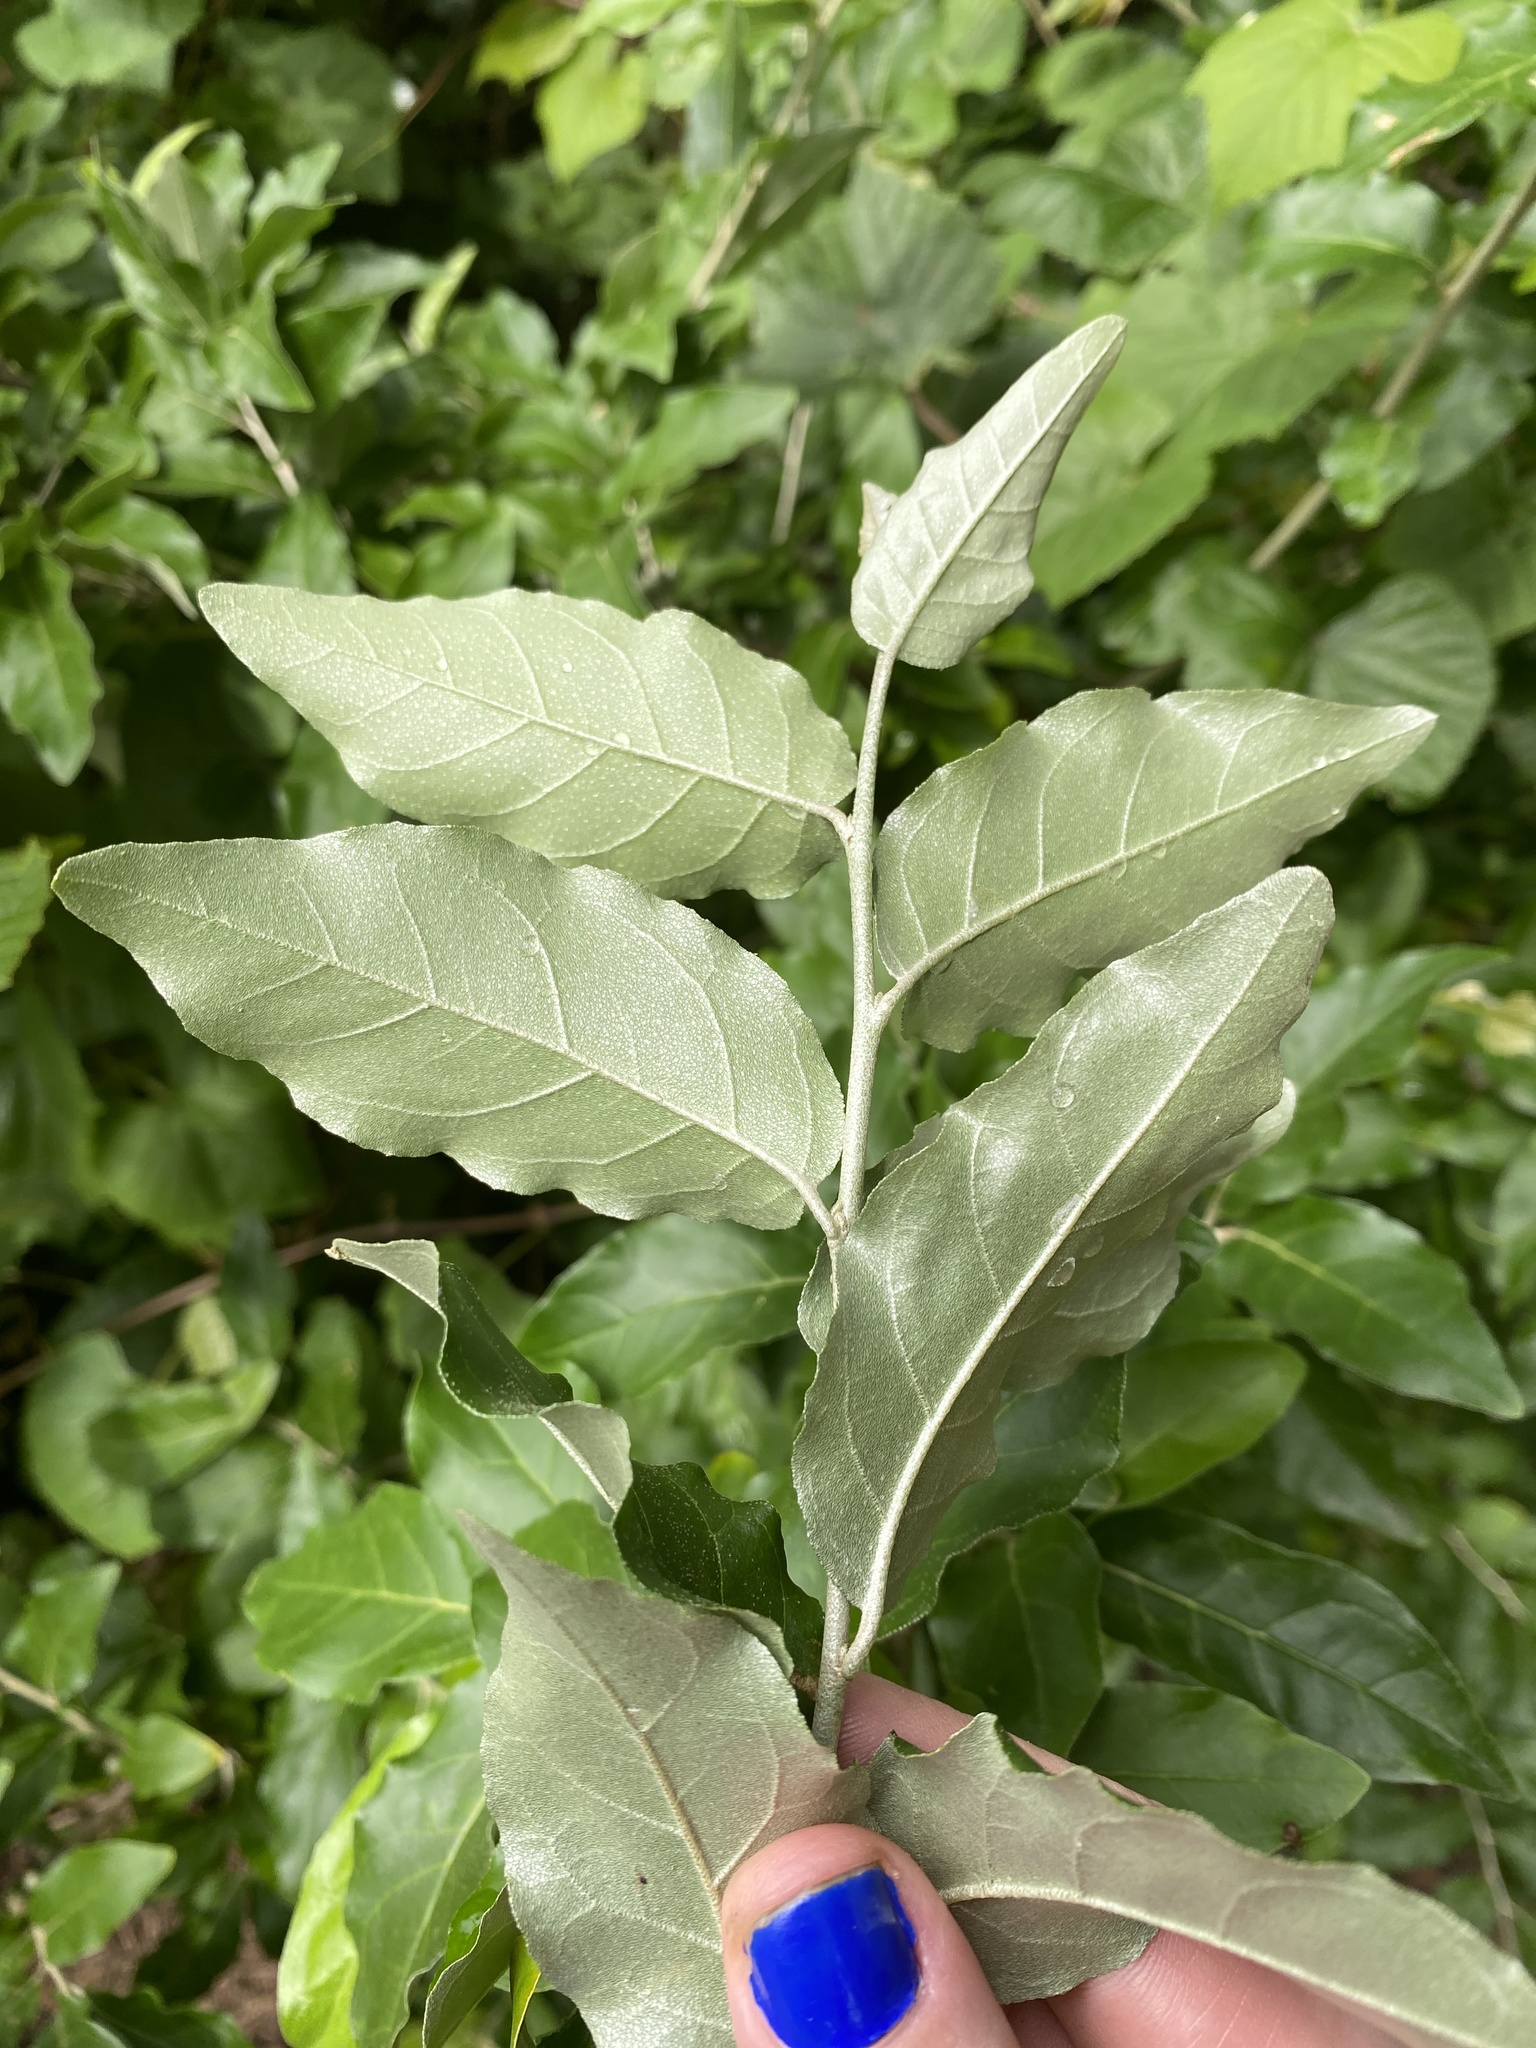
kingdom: Plantae
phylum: Tracheophyta
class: Magnoliopsida
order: Rosales
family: Elaeagnaceae
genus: Elaeagnus
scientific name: Elaeagnus umbellata
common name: Autumn olive
